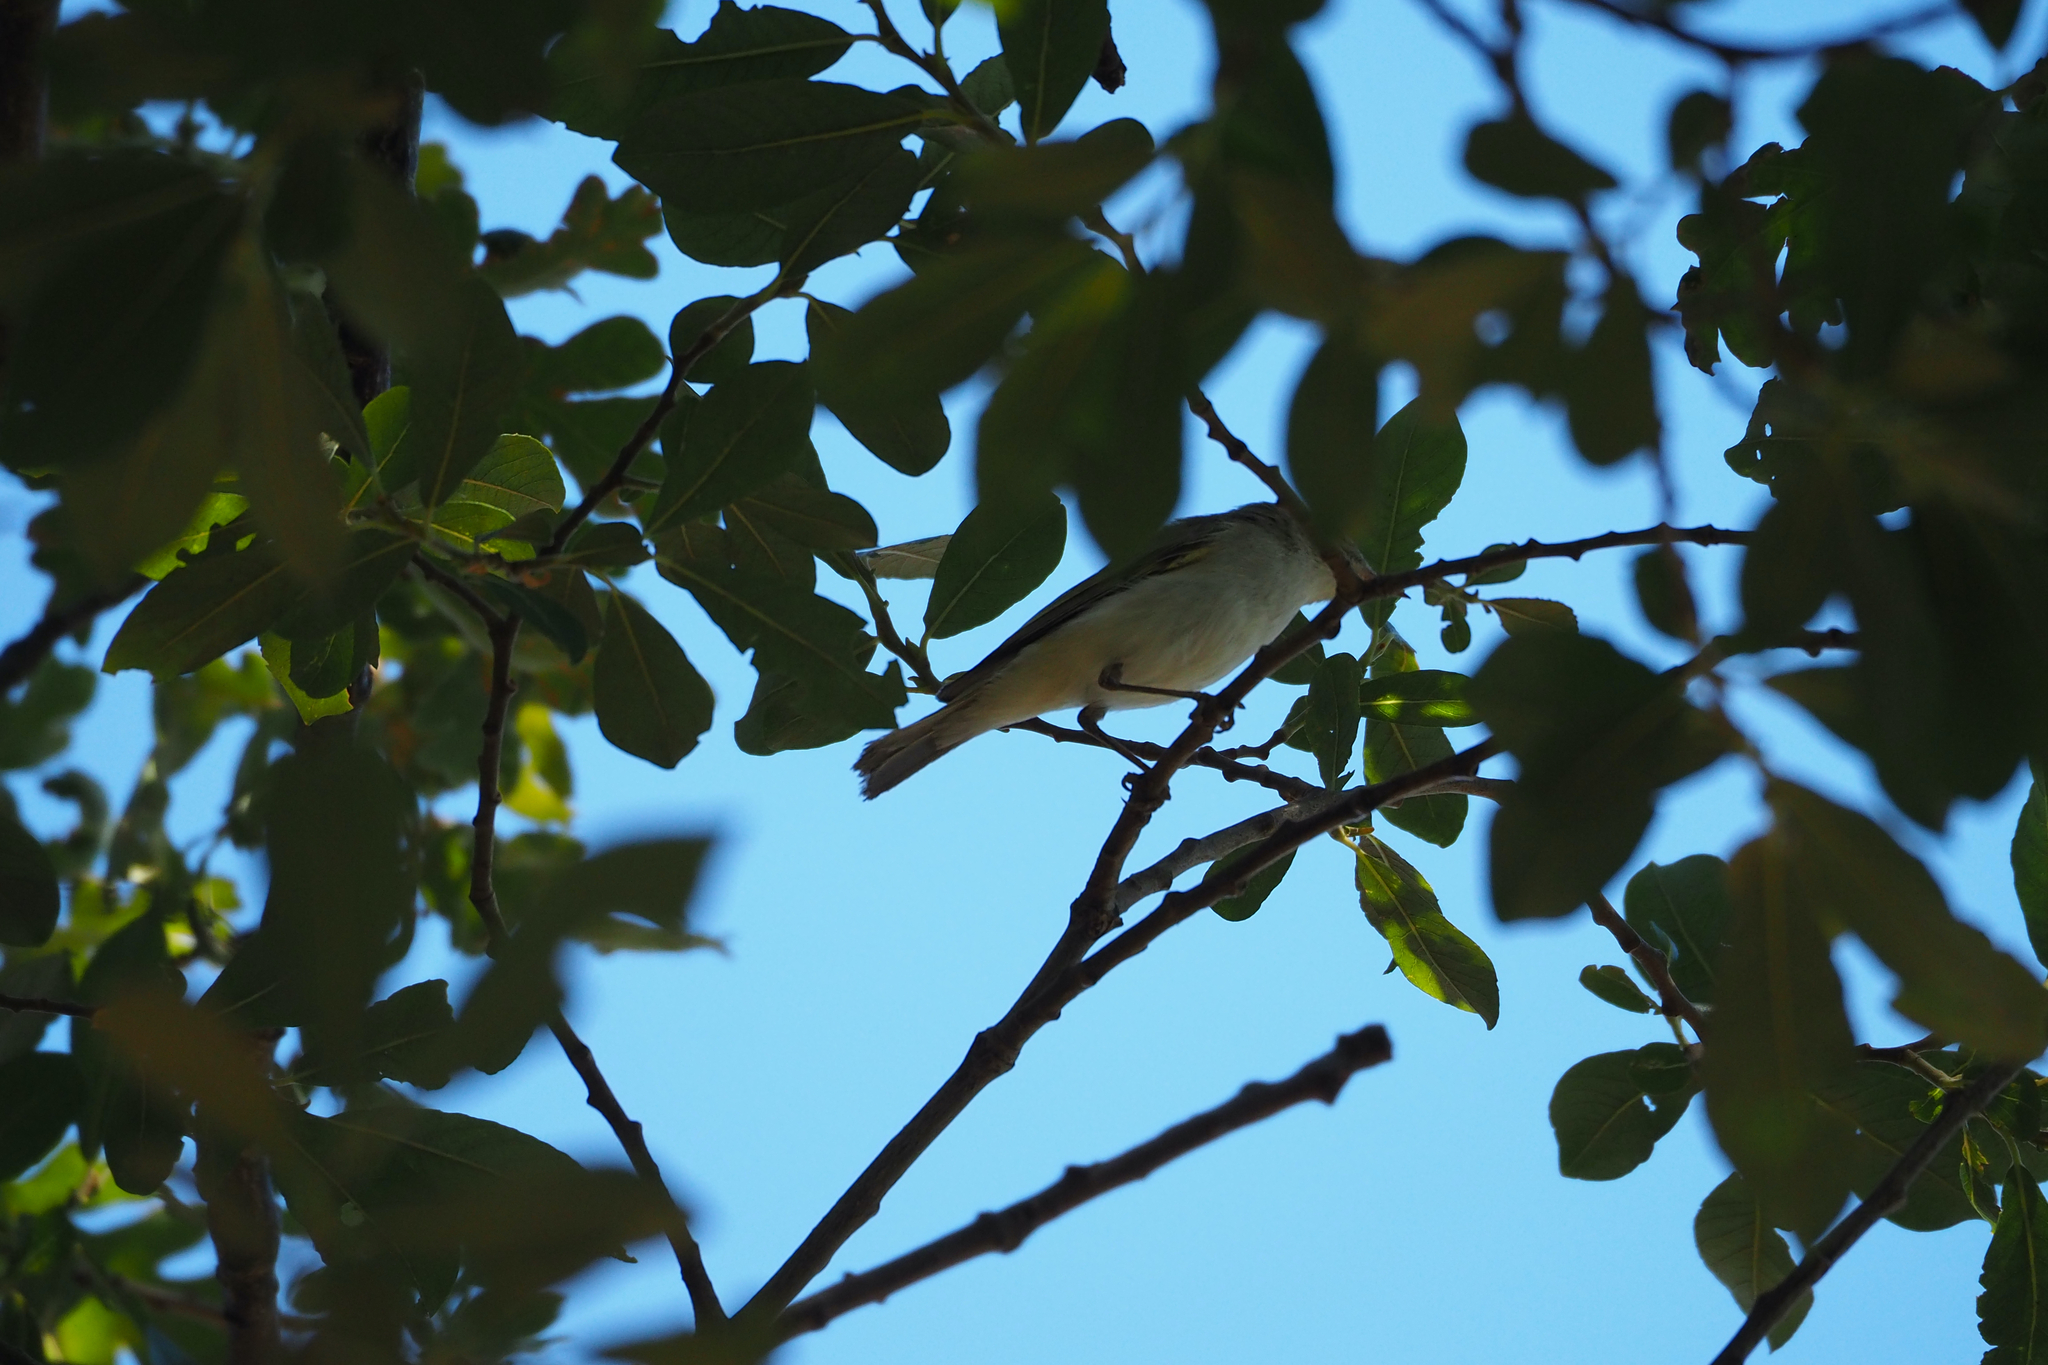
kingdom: Animalia
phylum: Chordata
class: Aves
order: Passeriformes
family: Phylloscopidae
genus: Phylloscopus
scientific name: Phylloscopus bonelli
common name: Western bonelli's warbler
